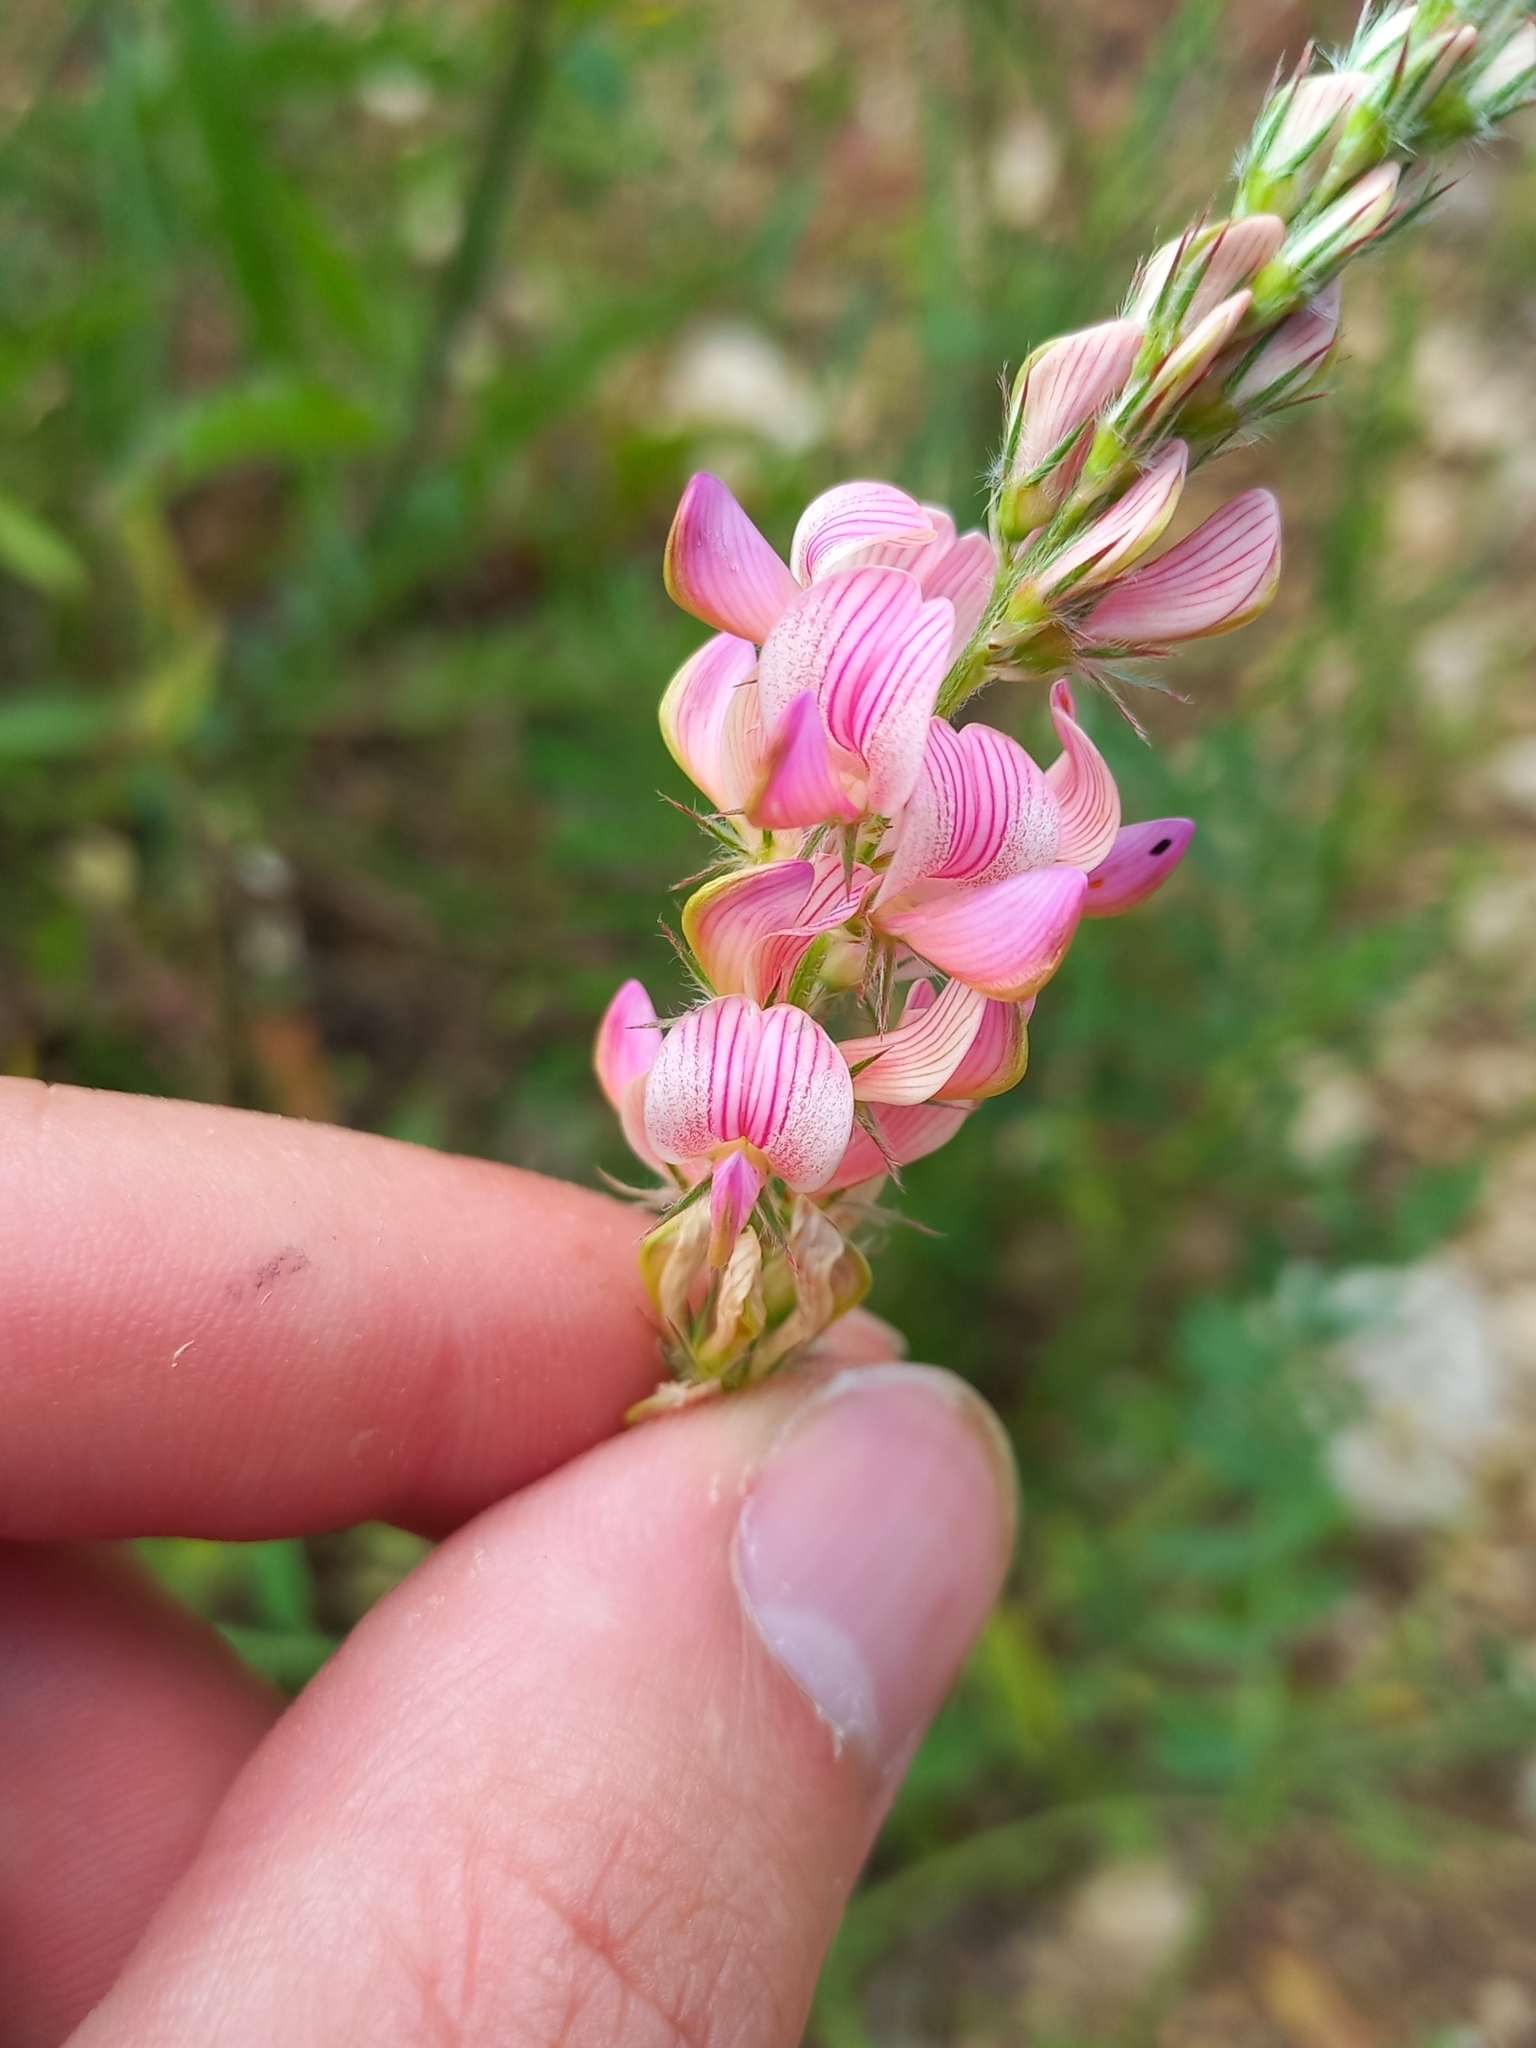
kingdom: Plantae
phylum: Tracheophyta
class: Magnoliopsida
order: Fabales
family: Fabaceae
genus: Onobrychis
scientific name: Onobrychis viciifolia
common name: Sainfoin
